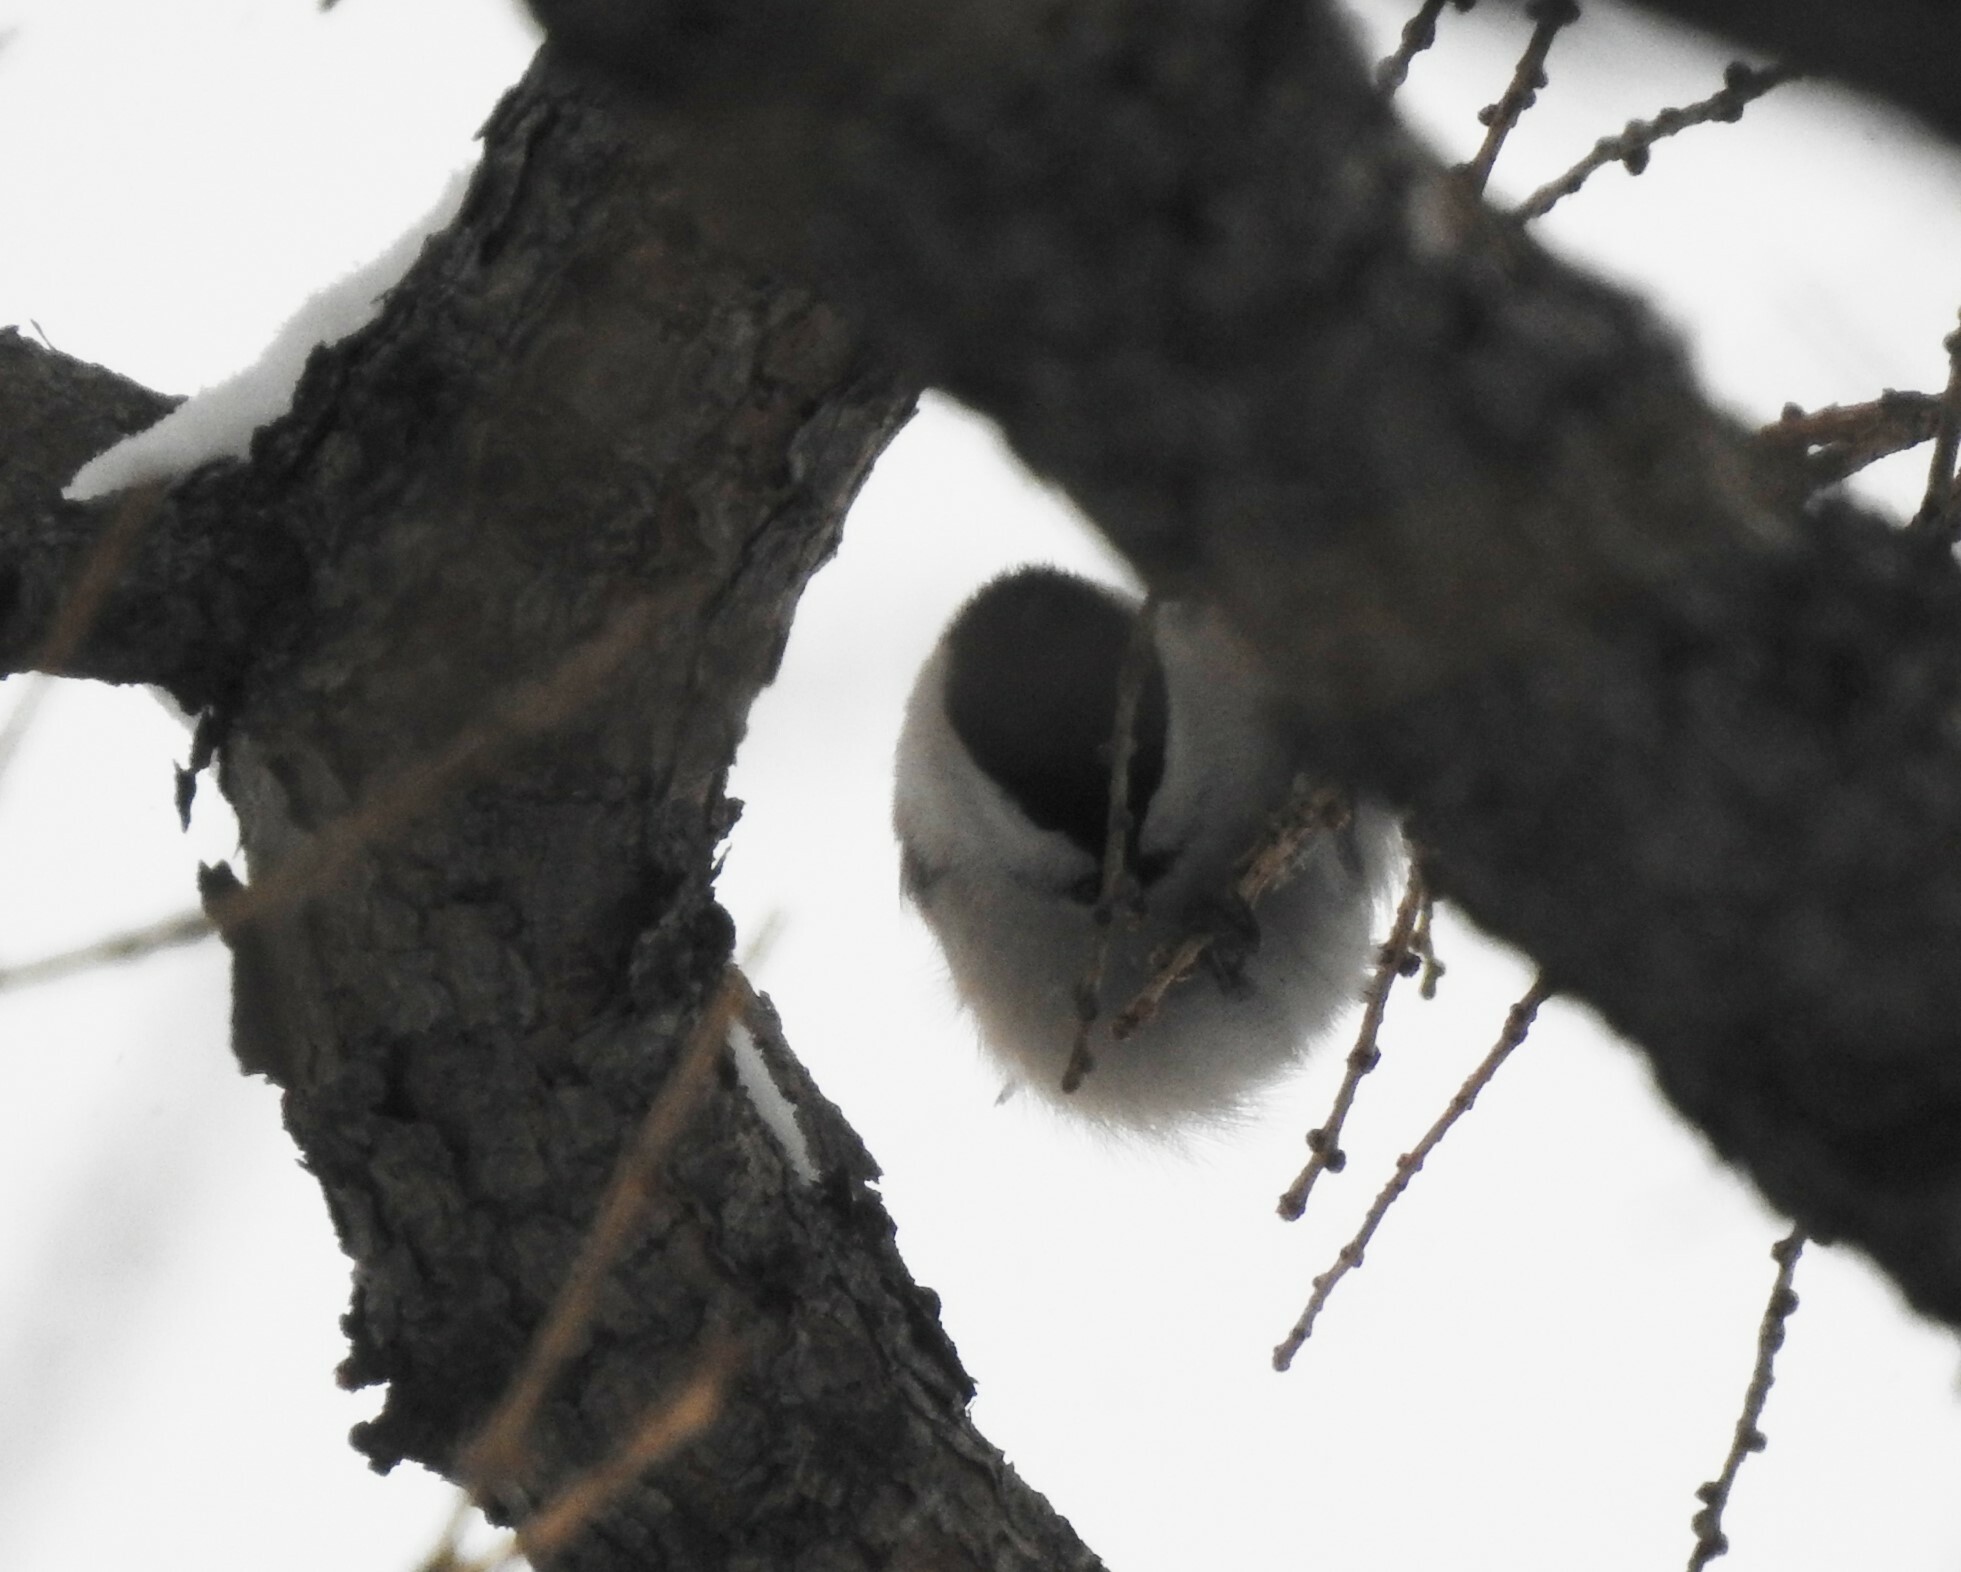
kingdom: Animalia
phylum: Chordata
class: Aves
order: Passeriformes
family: Paridae
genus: Poecile
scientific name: Poecile montanus
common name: Willow tit
